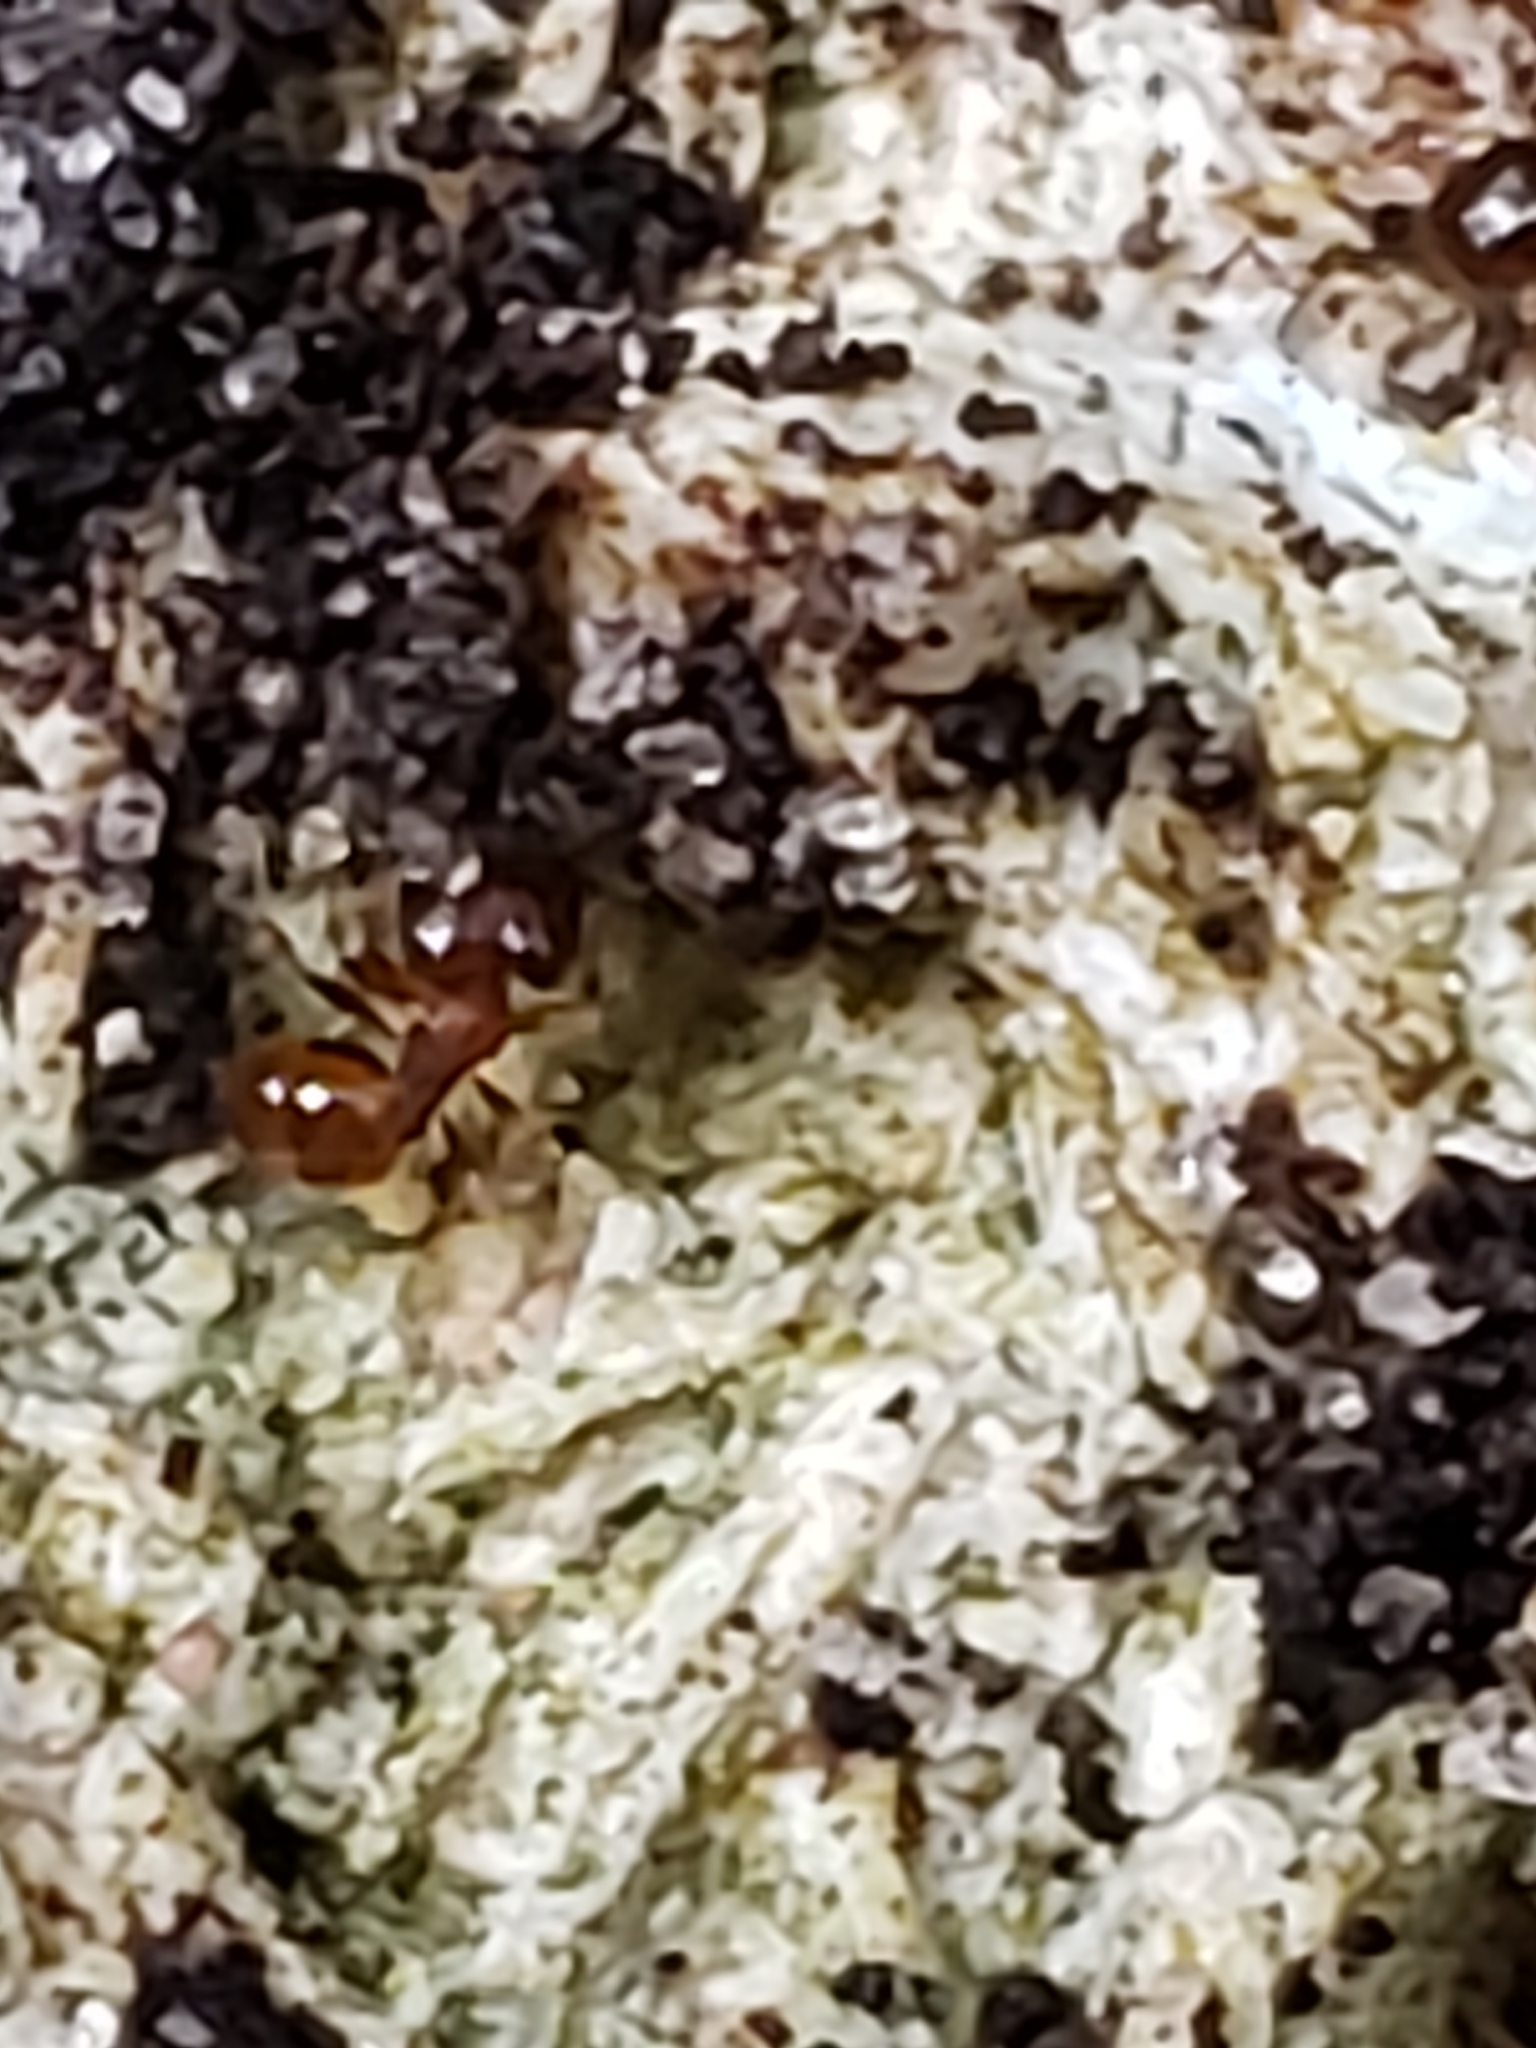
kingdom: Animalia
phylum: Arthropoda
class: Insecta
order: Hymenoptera
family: Formicidae
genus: Pheidole
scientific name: Pheidole navigans
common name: Navigating big-headed ant
